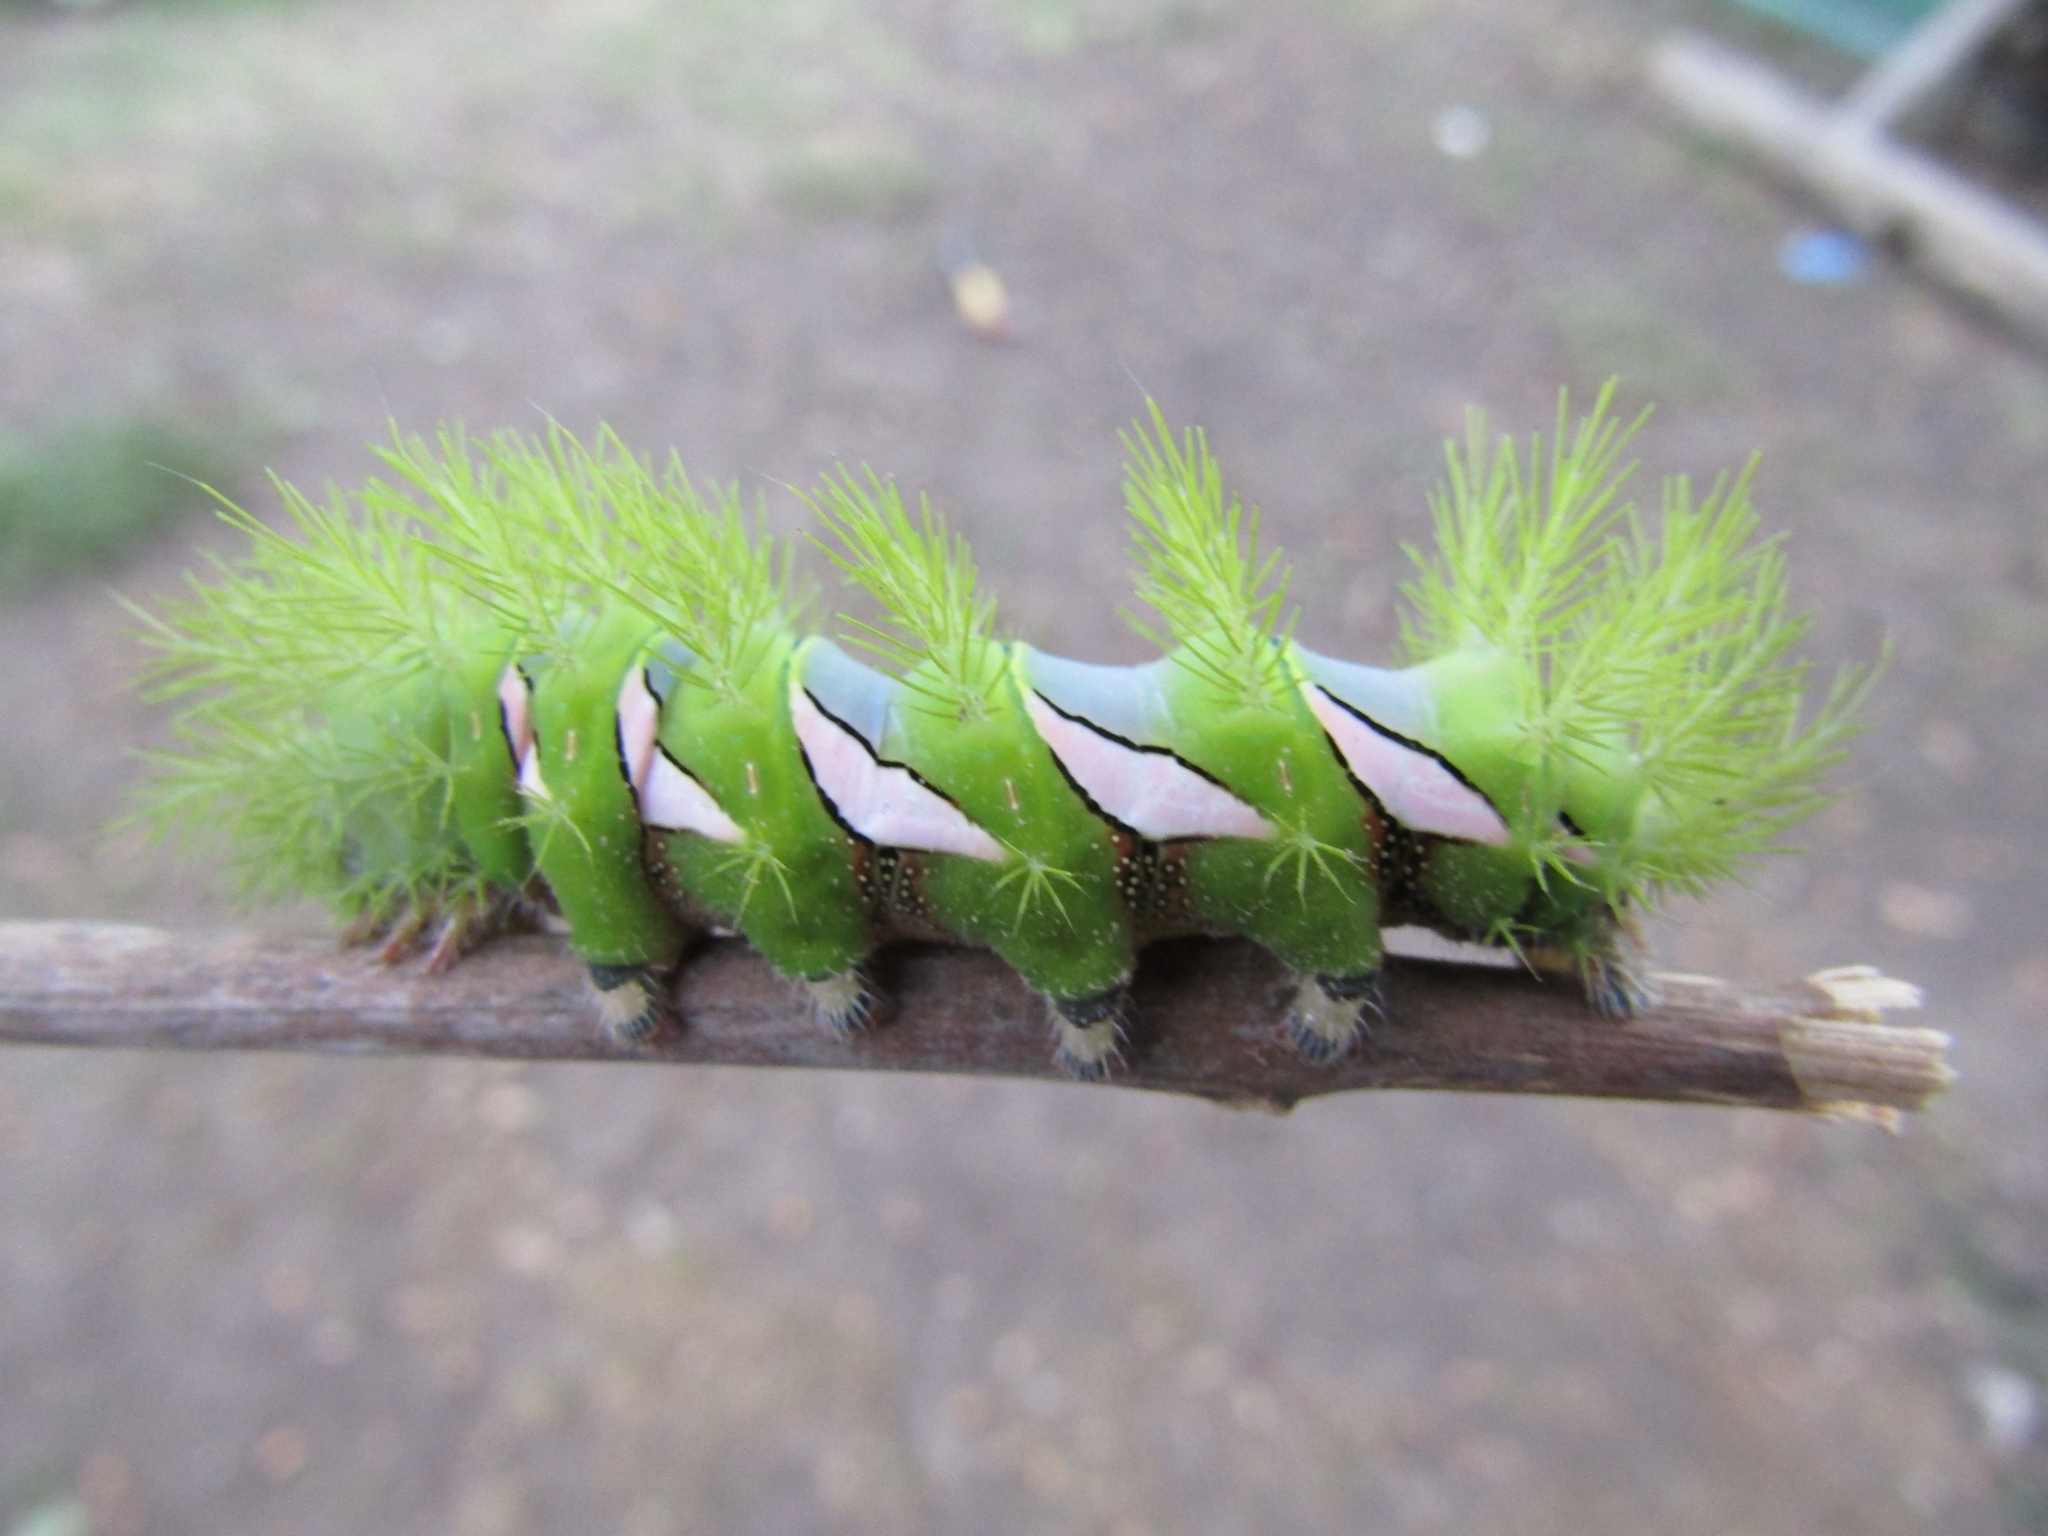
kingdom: Animalia
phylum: Arthropoda
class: Insecta
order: Lepidoptera
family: Saturniidae
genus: Automeris
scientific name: Automeris naranja
